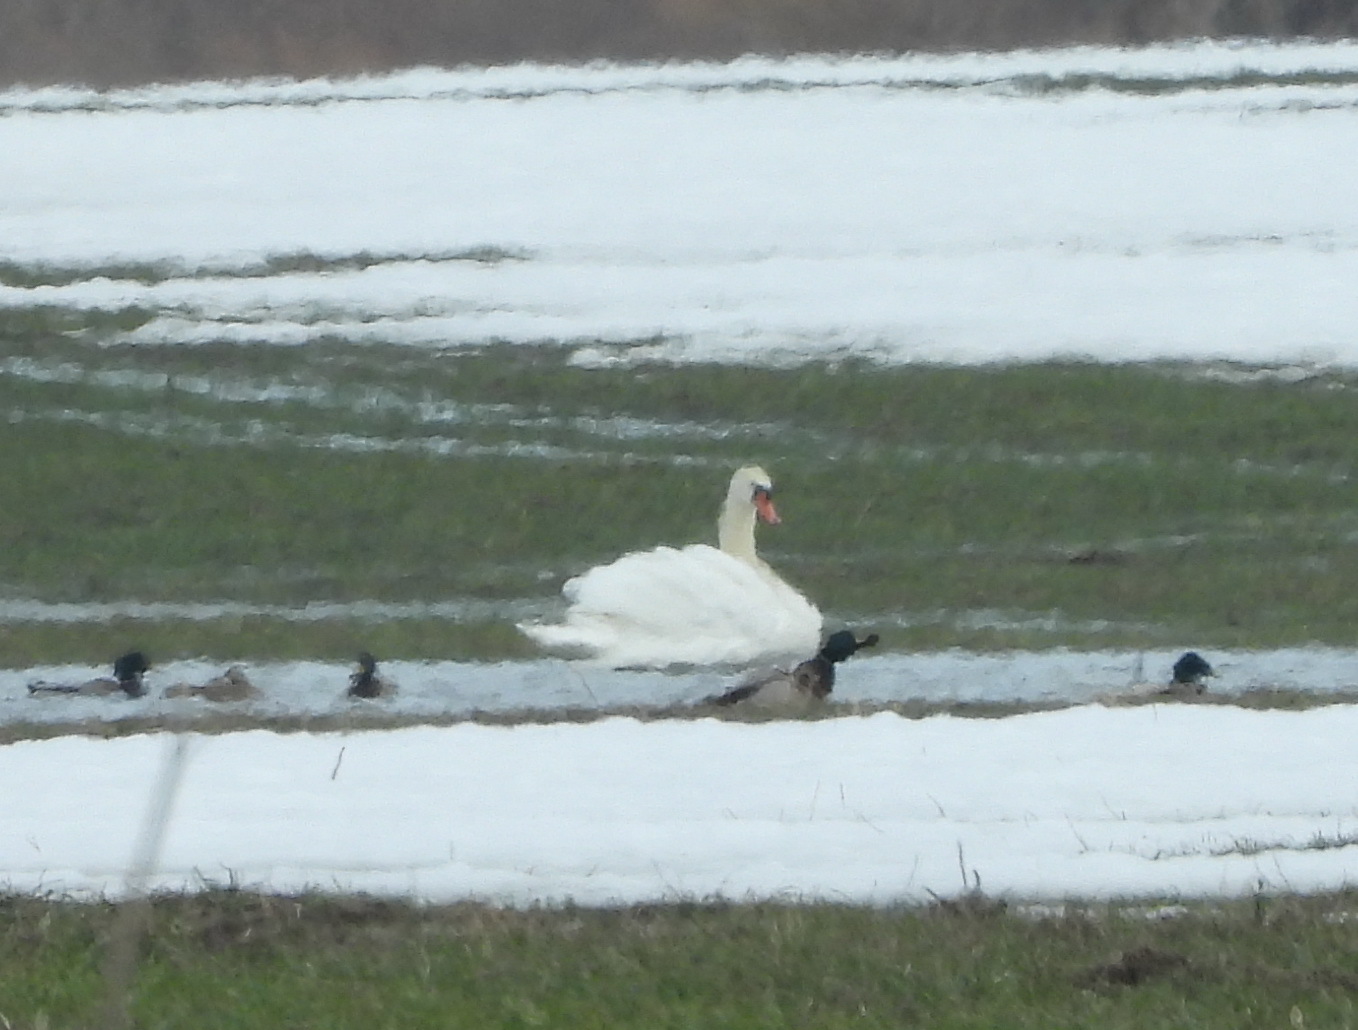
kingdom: Animalia
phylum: Chordata
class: Aves
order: Anseriformes
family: Anatidae
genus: Cygnus
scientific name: Cygnus olor
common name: Mute swan
